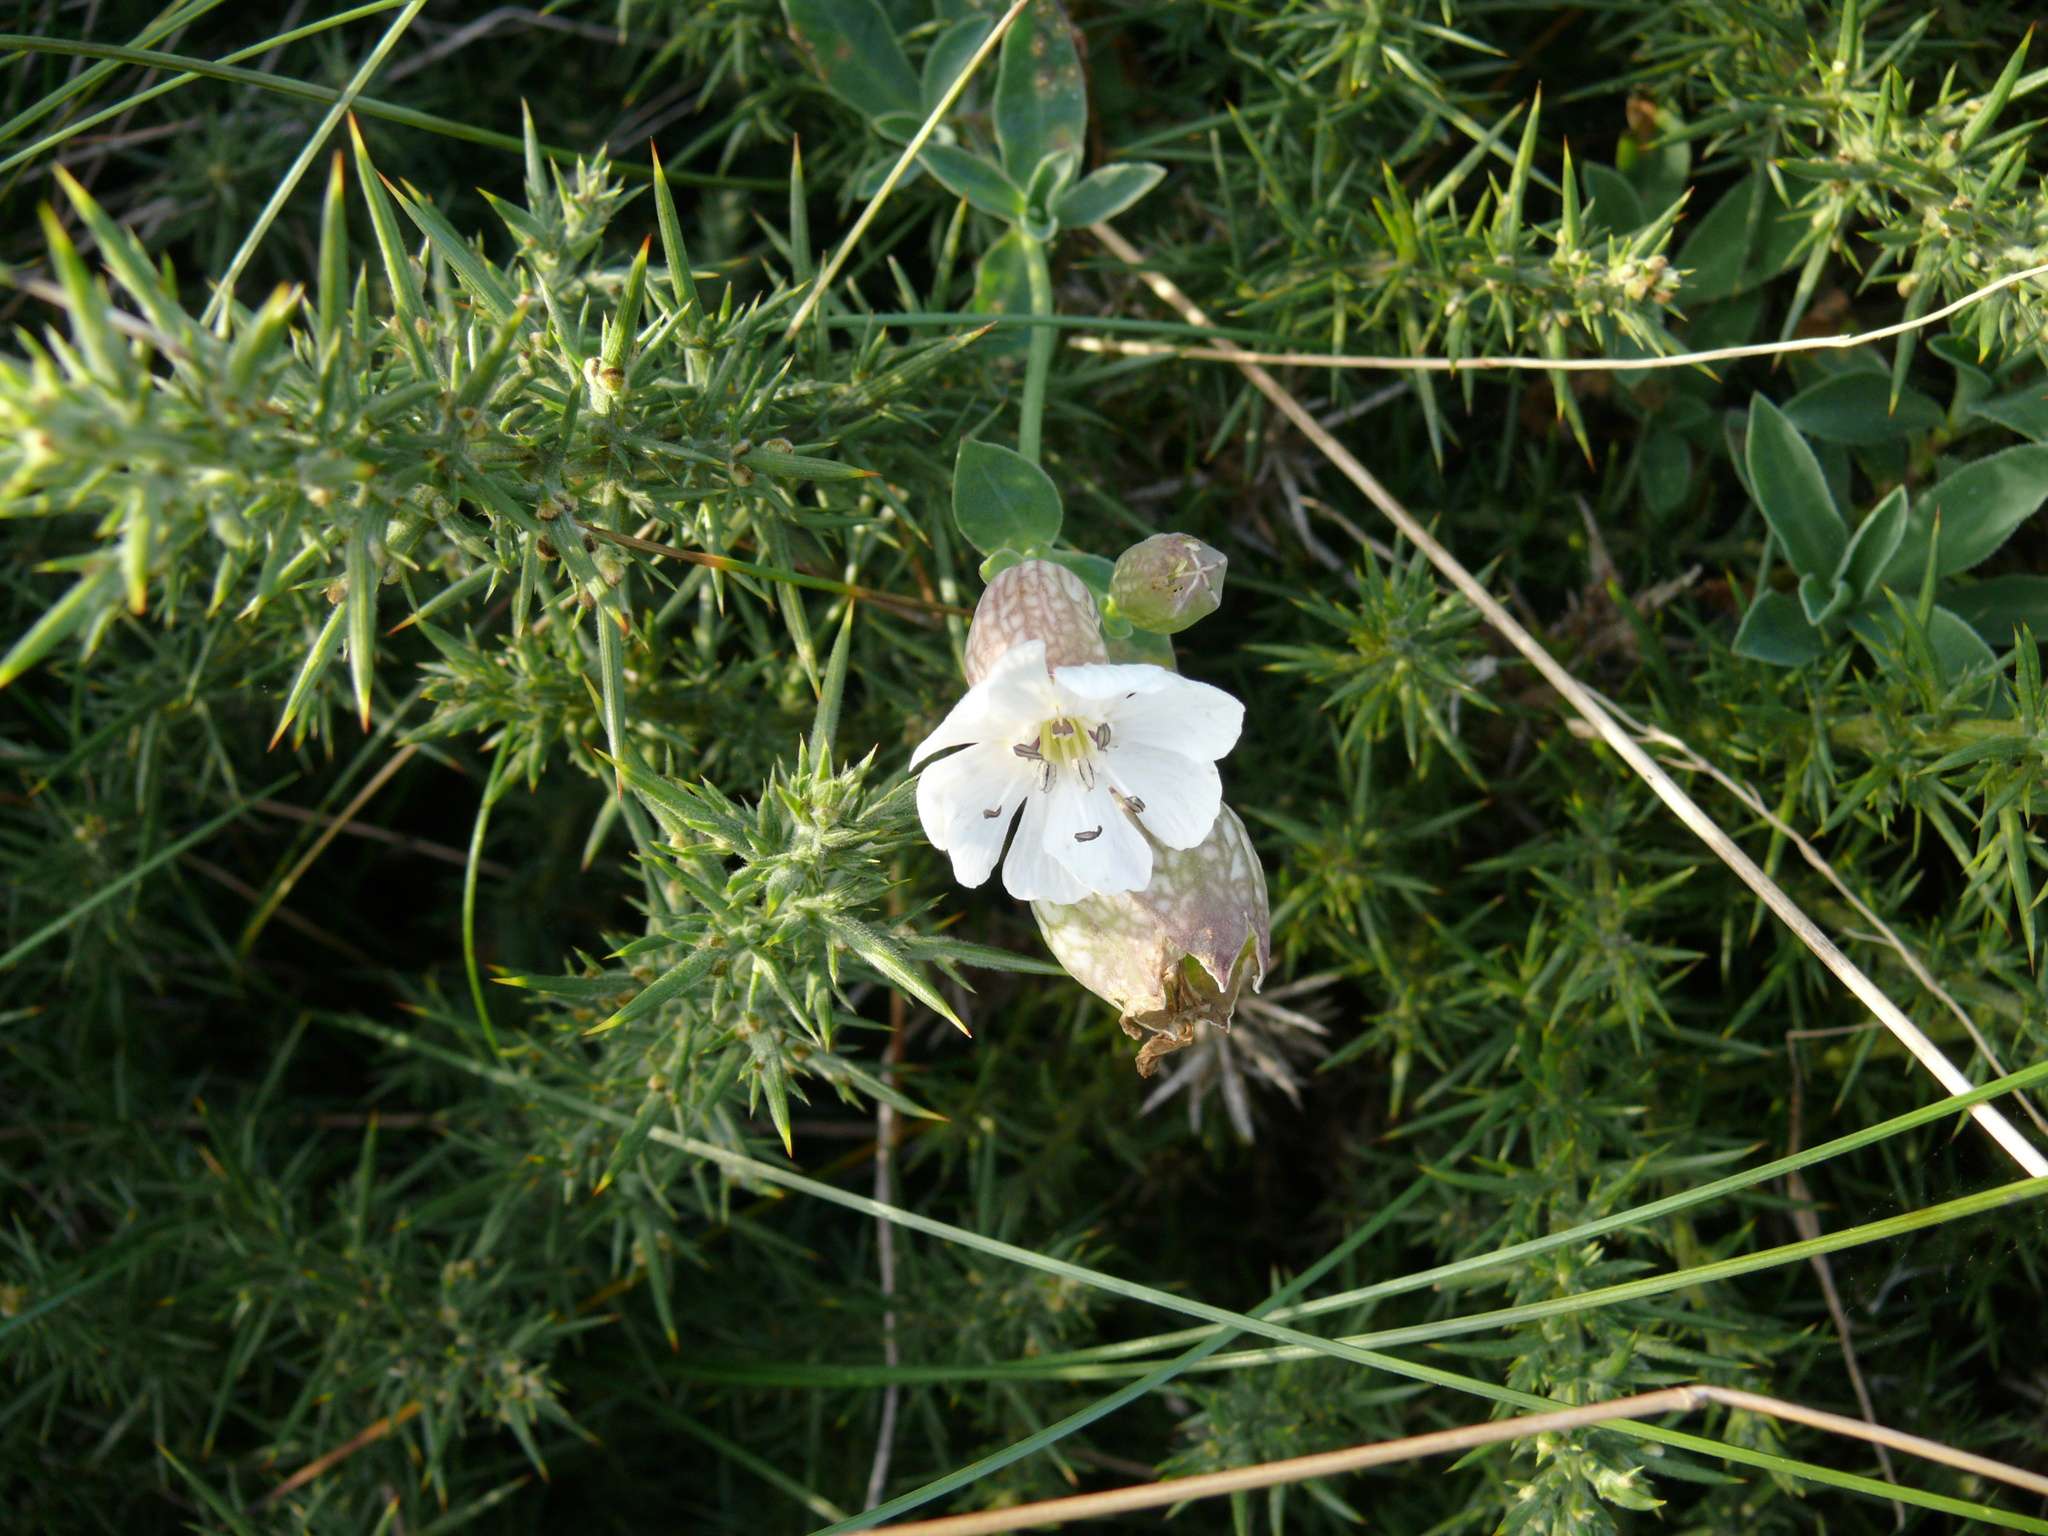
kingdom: Plantae
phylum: Tracheophyta
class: Magnoliopsida
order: Caryophyllales
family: Caryophyllaceae
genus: Silene
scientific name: Silene uniflora
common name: Sea campion
